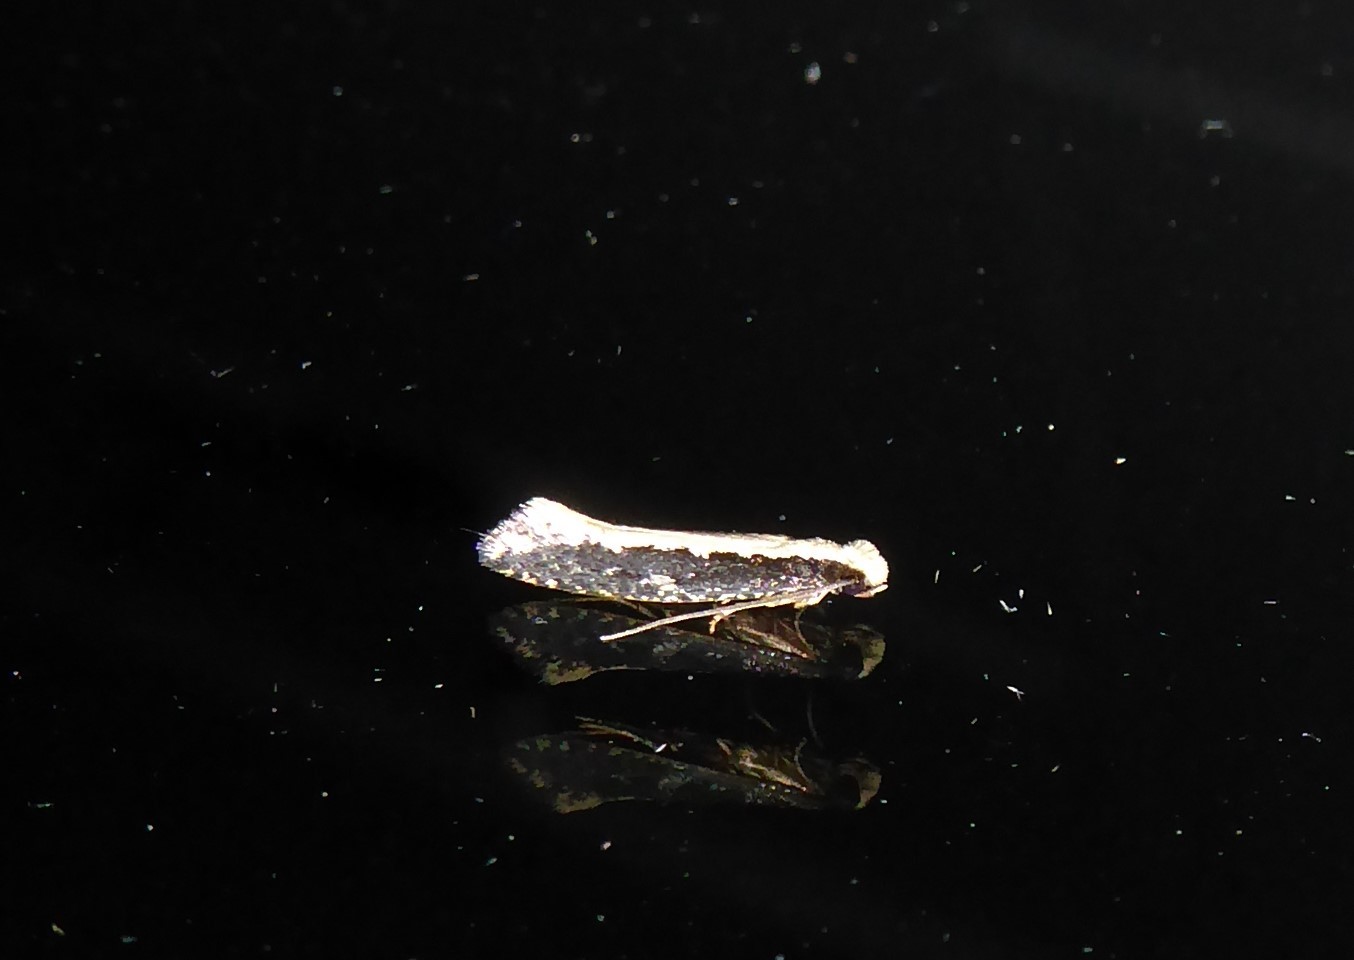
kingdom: Animalia
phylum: Arthropoda
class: Insecta
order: Lepidoptera
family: Tineidae
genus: Monopis
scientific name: Monopis ethelella
